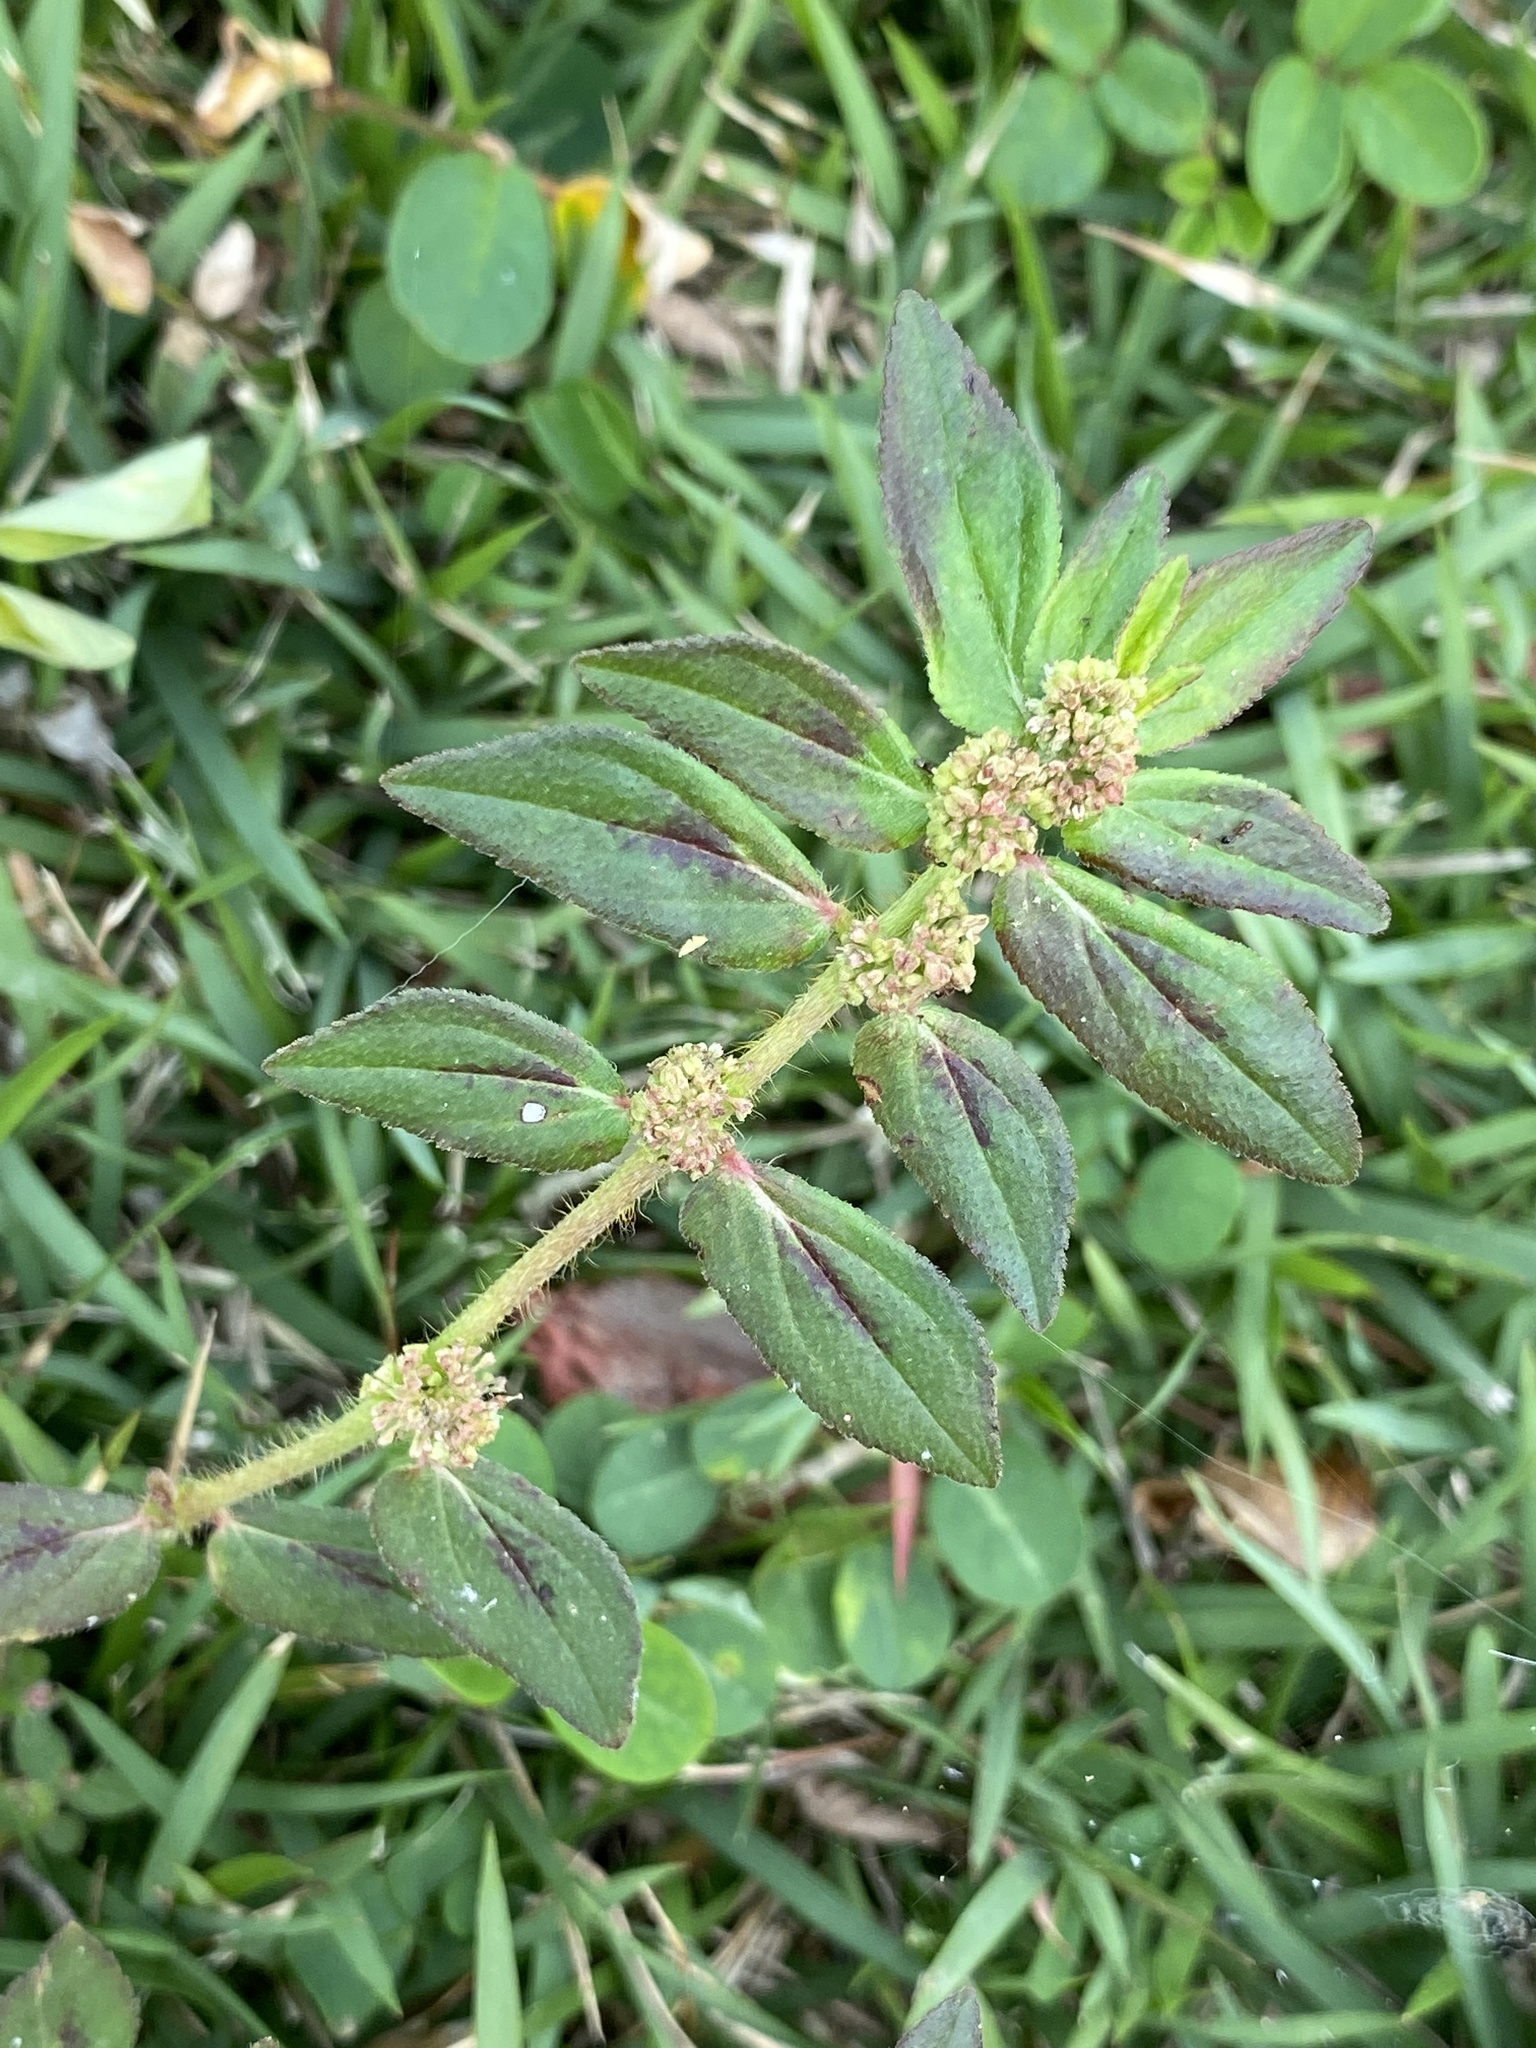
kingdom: Plantae
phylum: Tracheophyta
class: Magnoliopsida
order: Malpighiales
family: Euphorbiaceae
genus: Euphorbia
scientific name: Euphorbia hirta
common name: Pillpod sandmat
